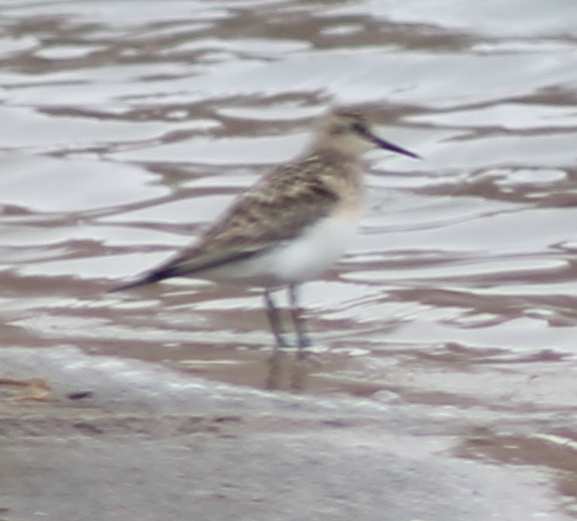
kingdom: Animalia
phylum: Chordata
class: Aves
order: Charadriiformes
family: Scolopacidae
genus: Calidris
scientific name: Calidris bairdii
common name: Baird's sandpiper
